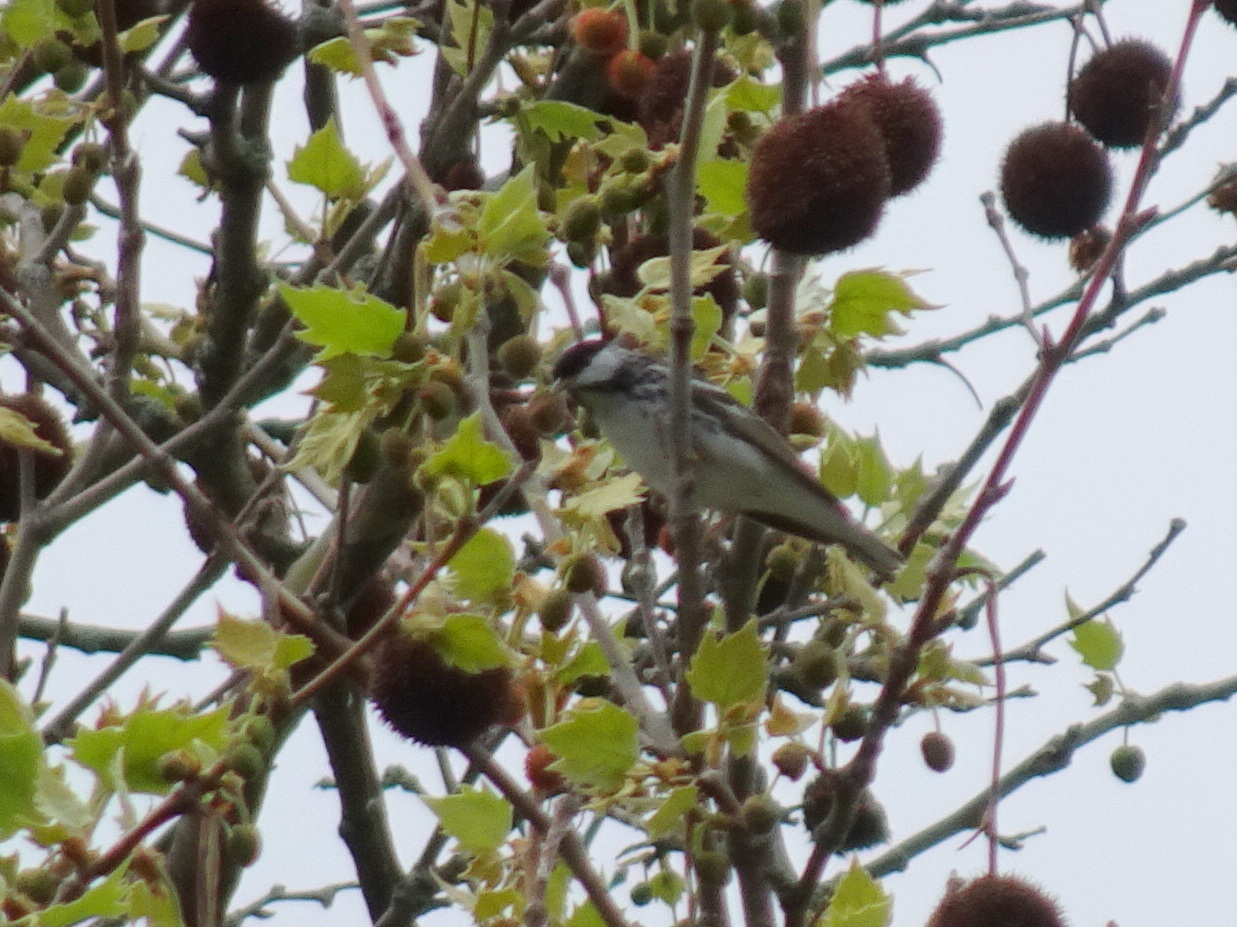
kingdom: Animalia
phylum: Chordata
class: Aves
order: Passeriformes
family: Parulidae
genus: Setophaga
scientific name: Setophaga striata
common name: Blackpoll warbler
